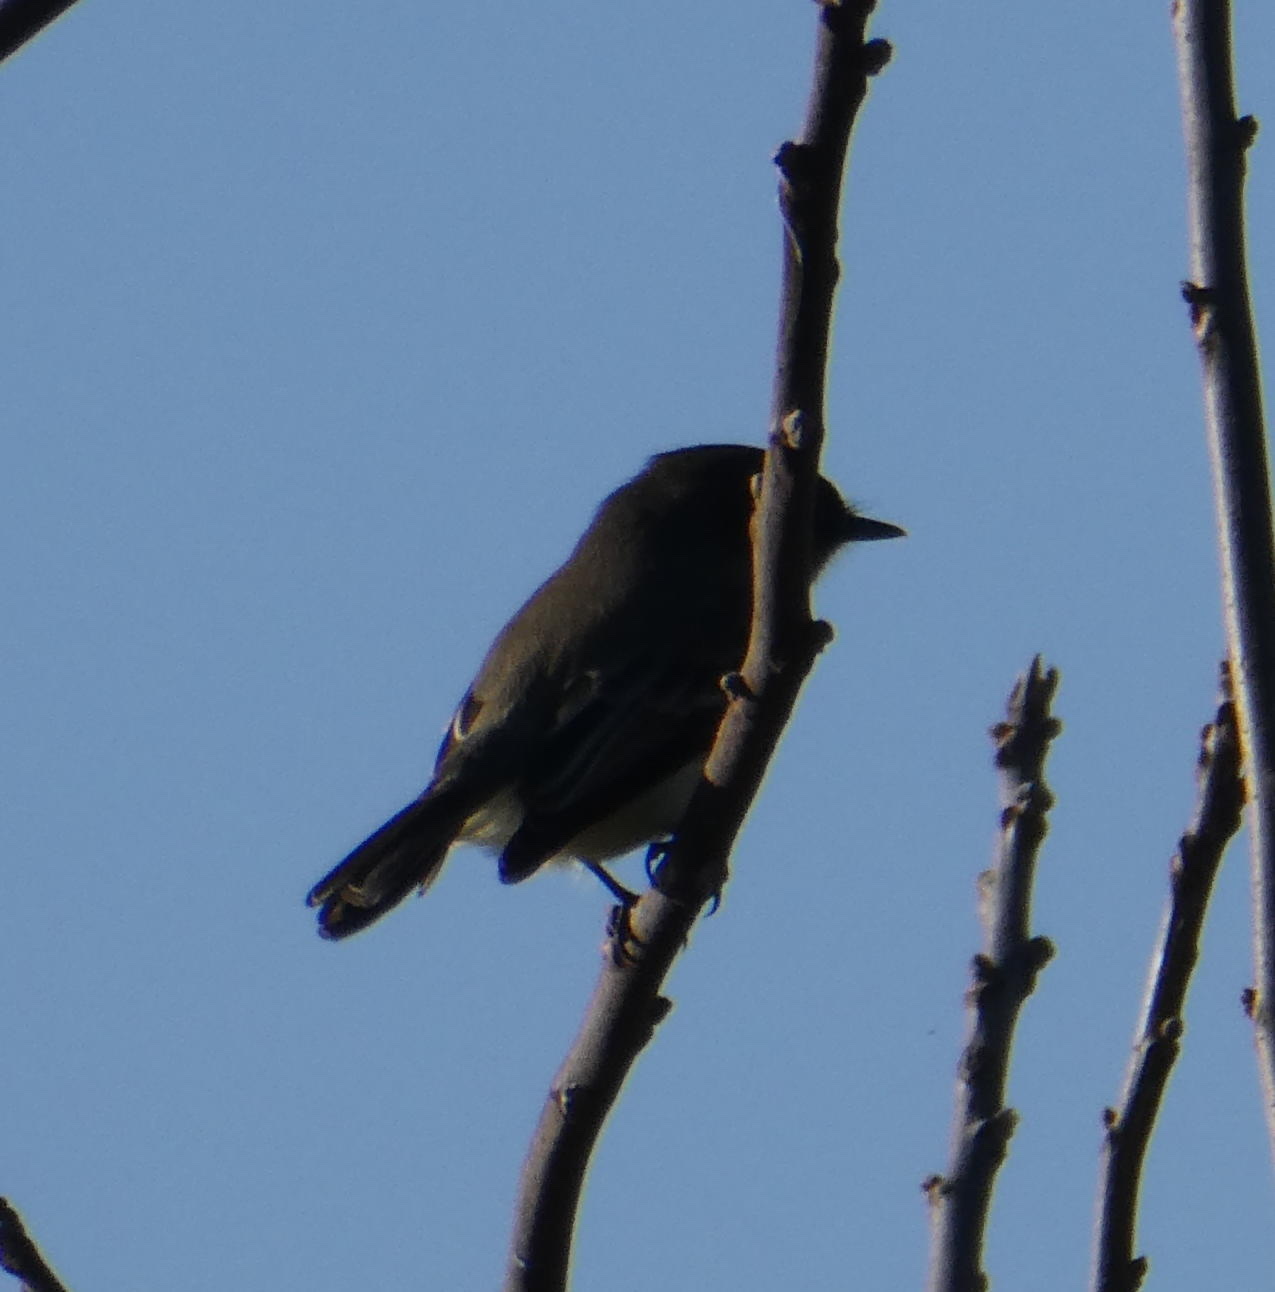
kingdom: Animalia
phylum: Chordata
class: Aves
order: Passeriformes
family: Tyrannidae
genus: Sayornis
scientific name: Sayornis phoebe
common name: Eastern phoebe
